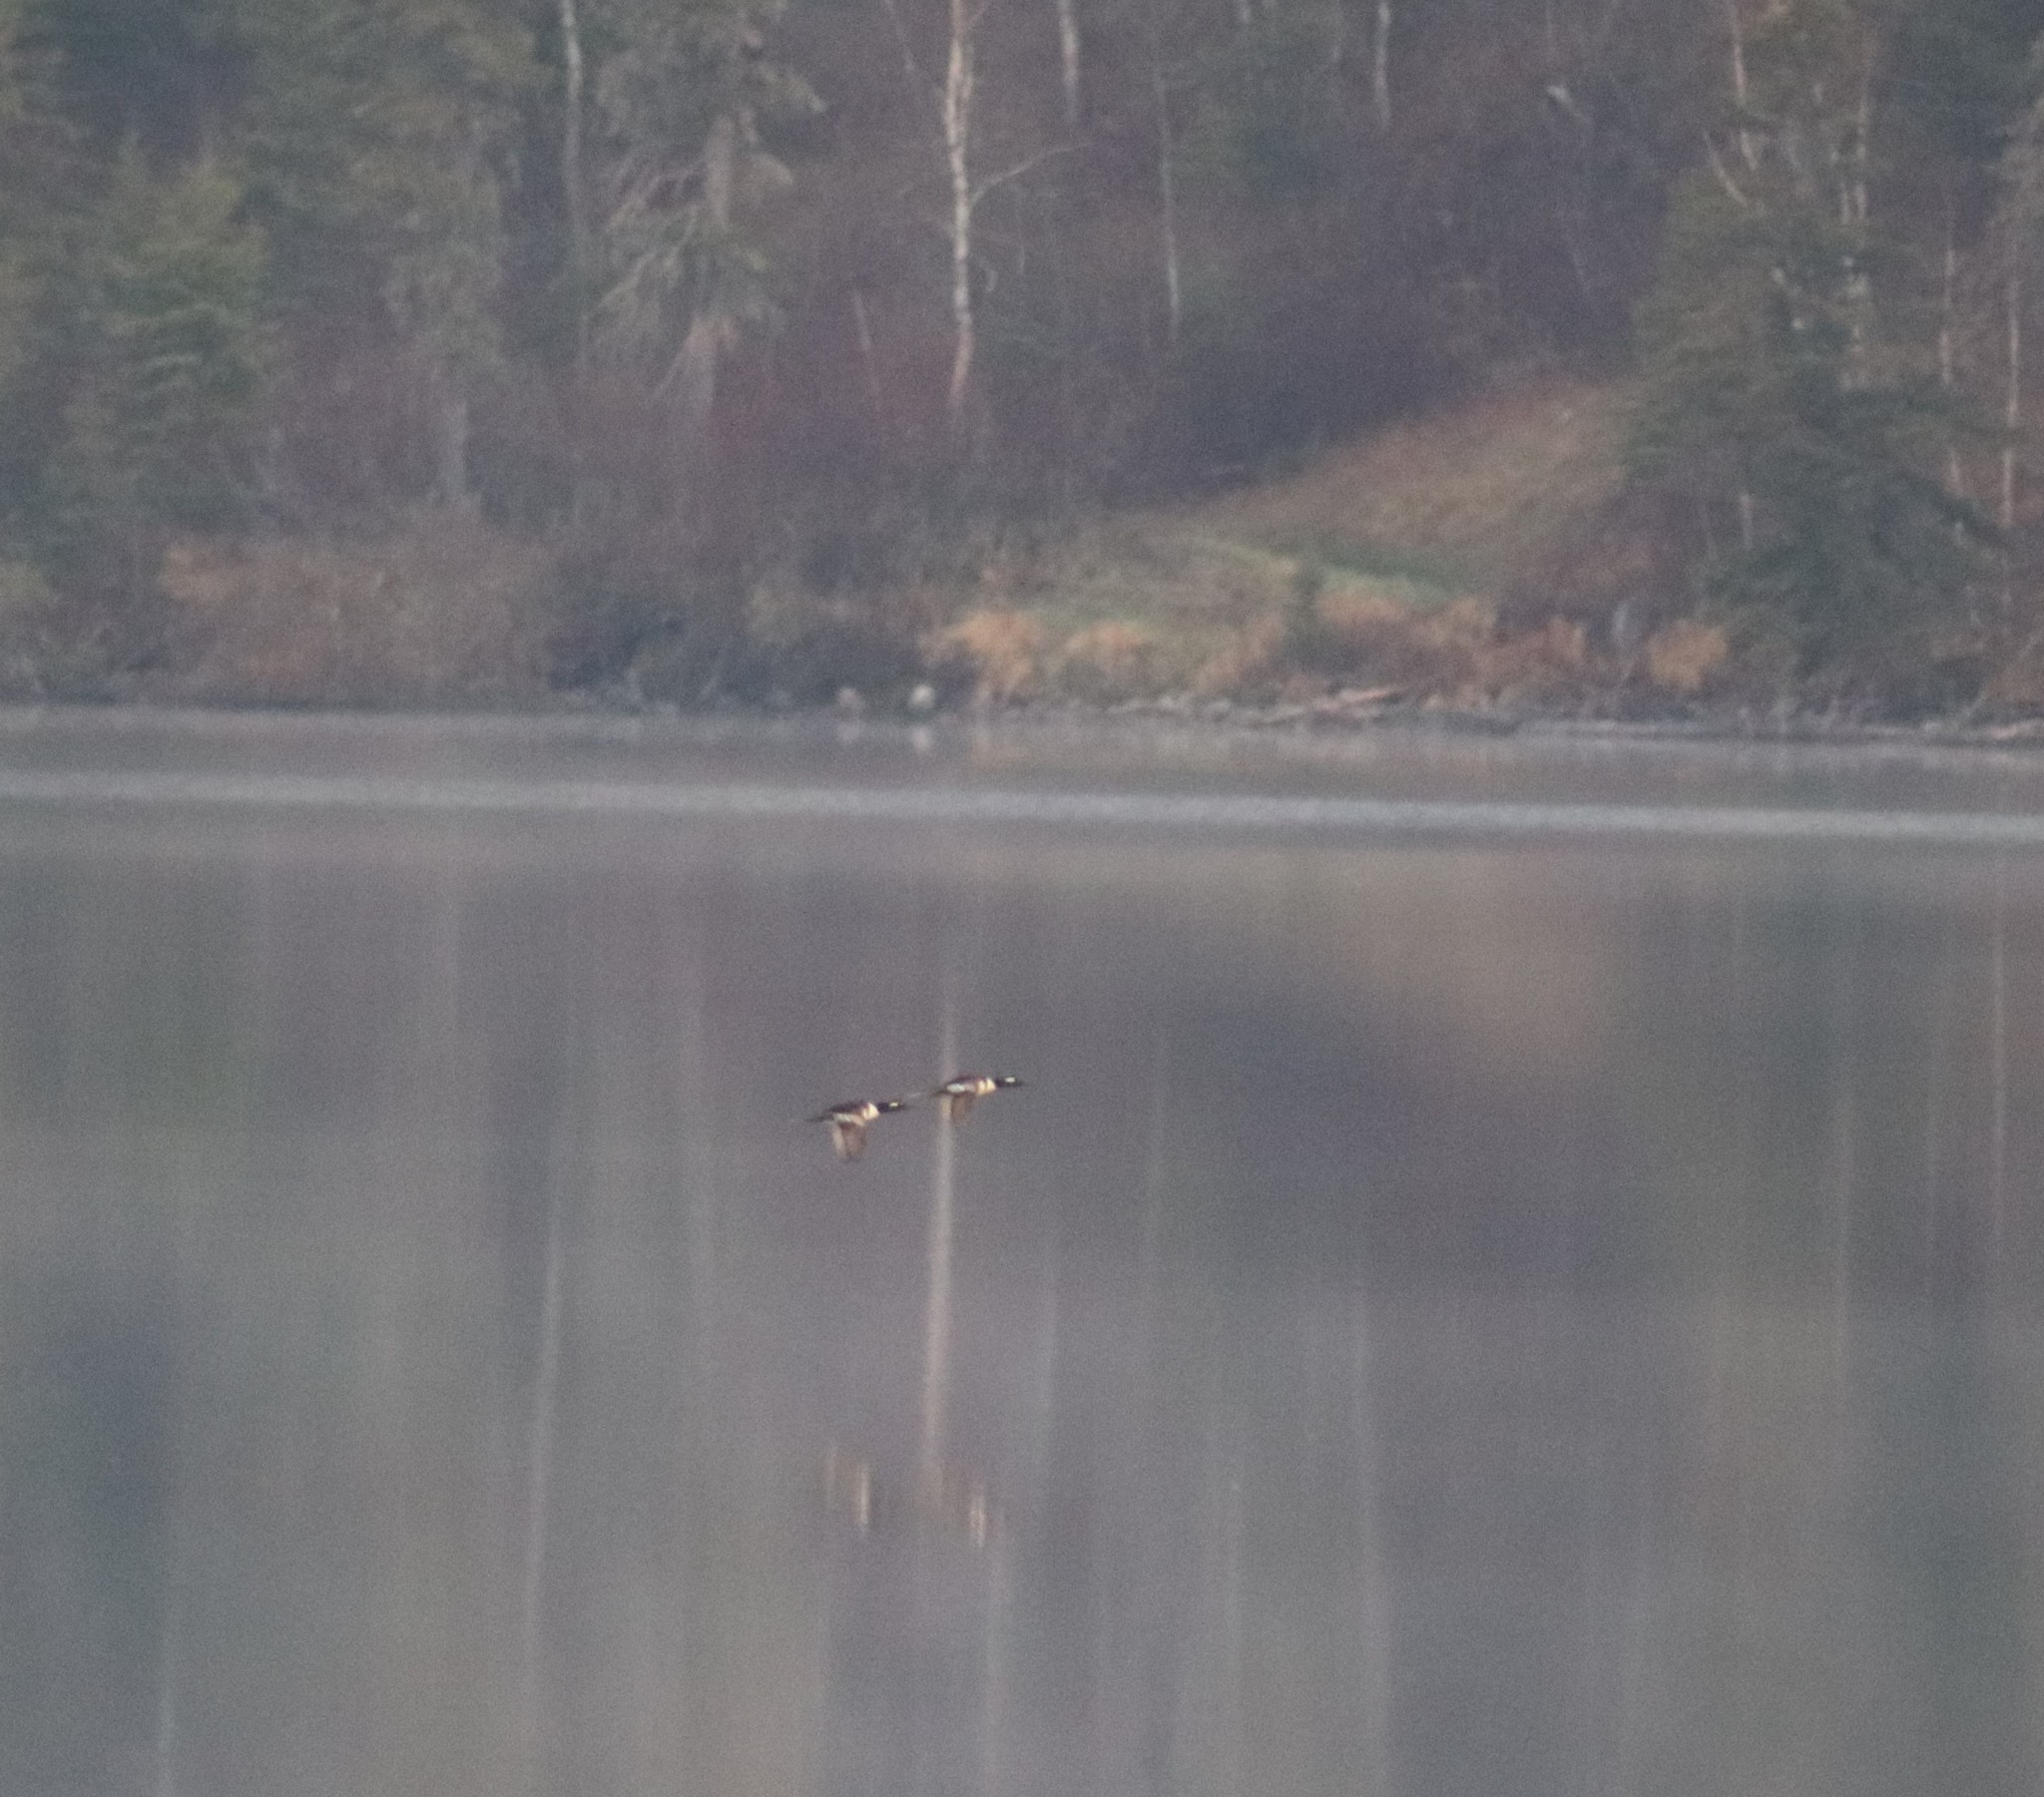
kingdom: Animalia
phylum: Chordata
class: Aves
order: Anseriformes
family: Anatidae
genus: Lophodytes
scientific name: Lophodytes cucullatus
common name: Hooded merganser
